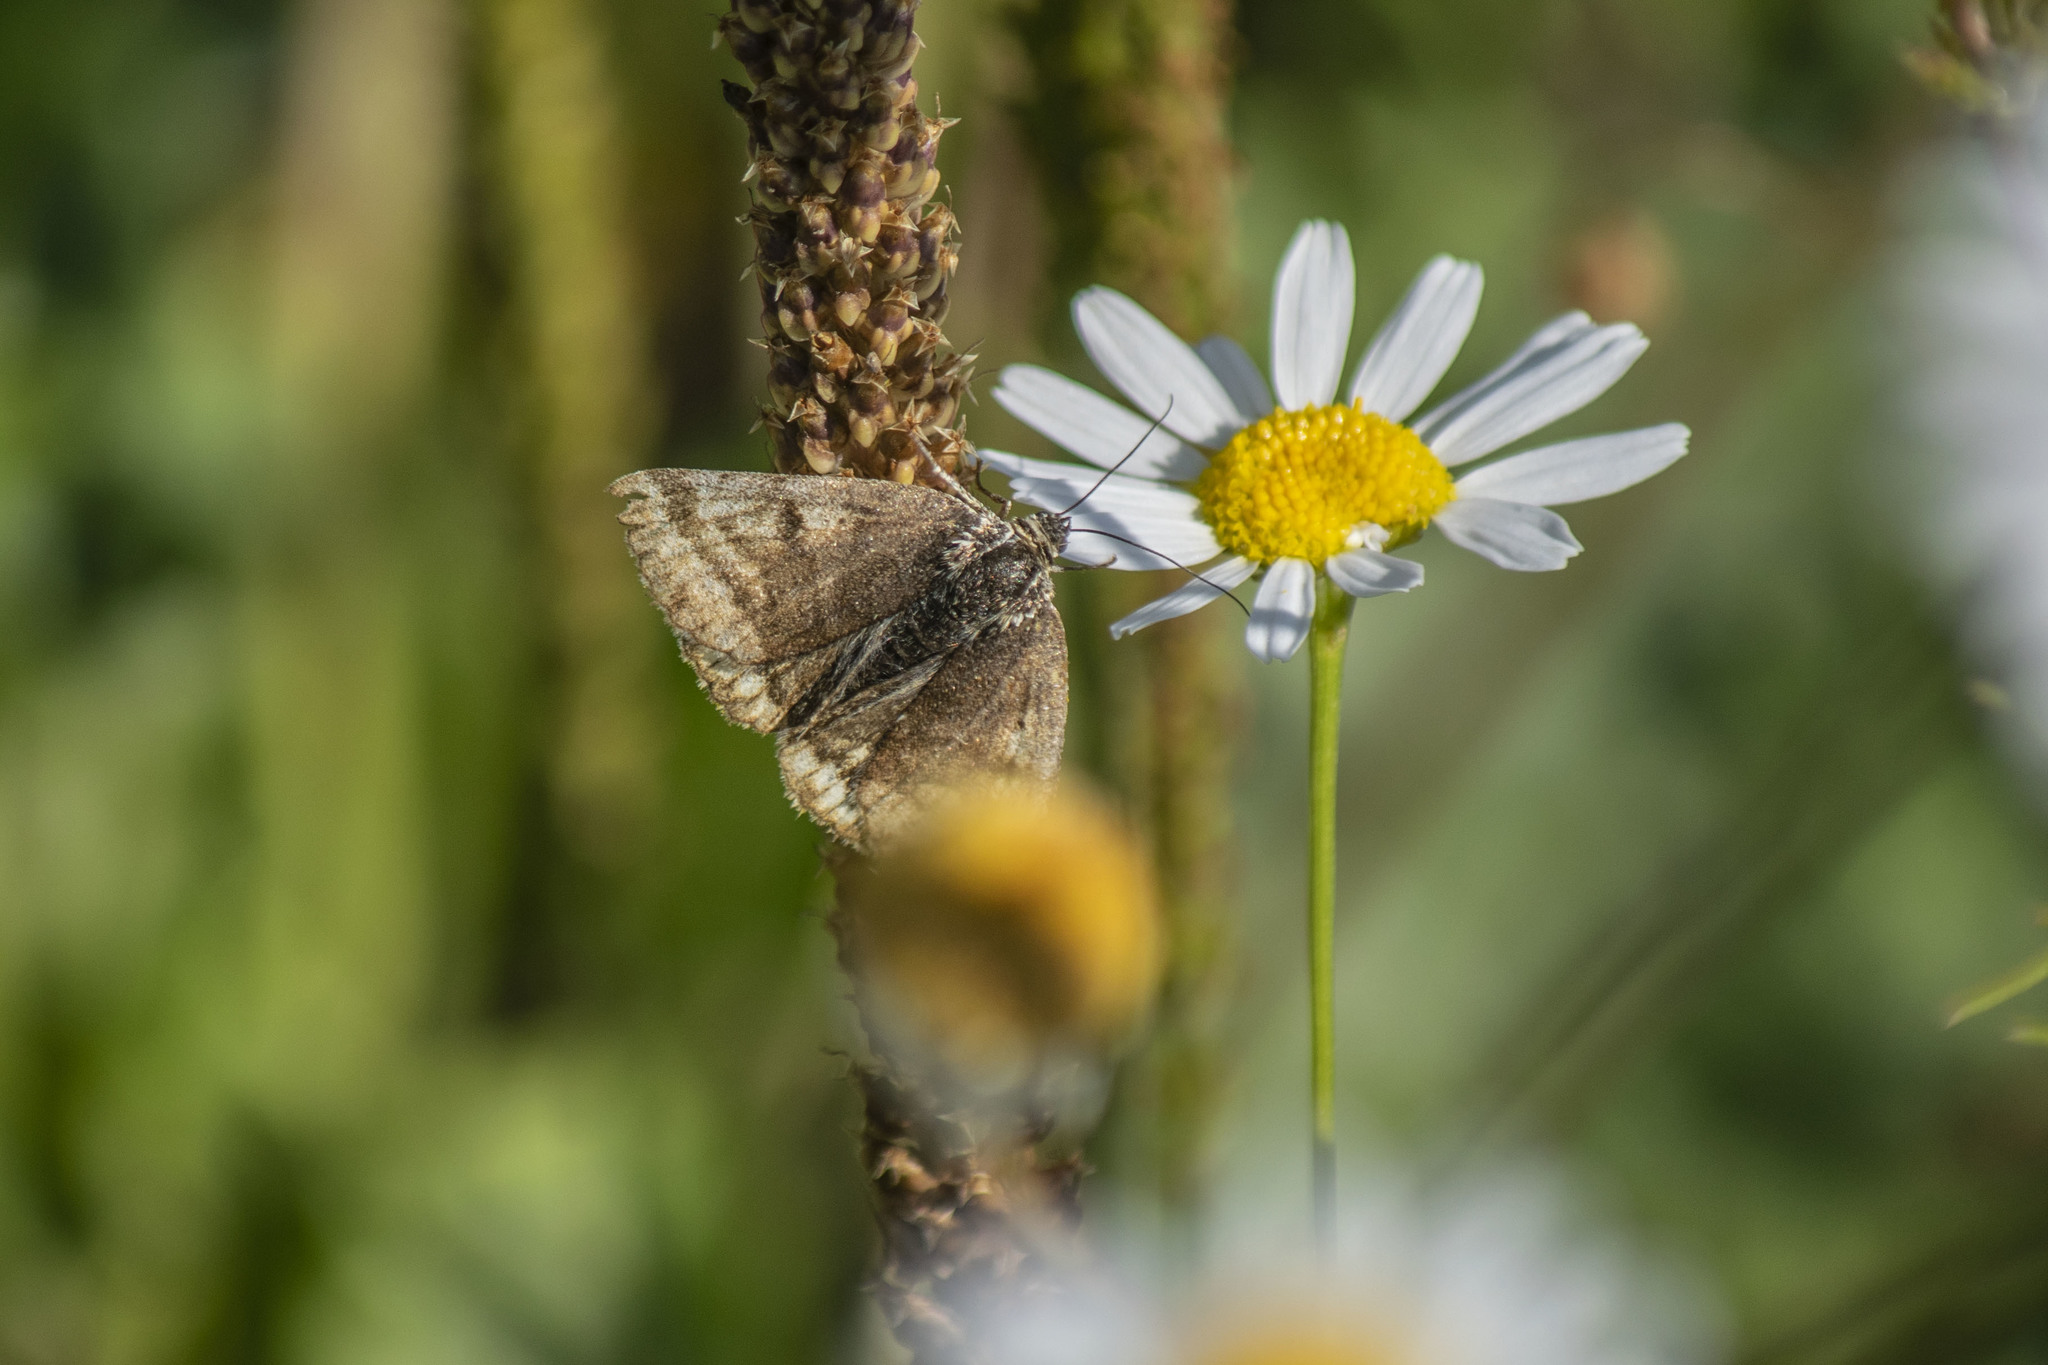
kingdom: Animalia
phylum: Arthropoda
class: Insecta
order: Lepidoptera
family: Erebidae
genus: Euclidia
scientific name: Euclidia glyphica
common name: Burnet companion
